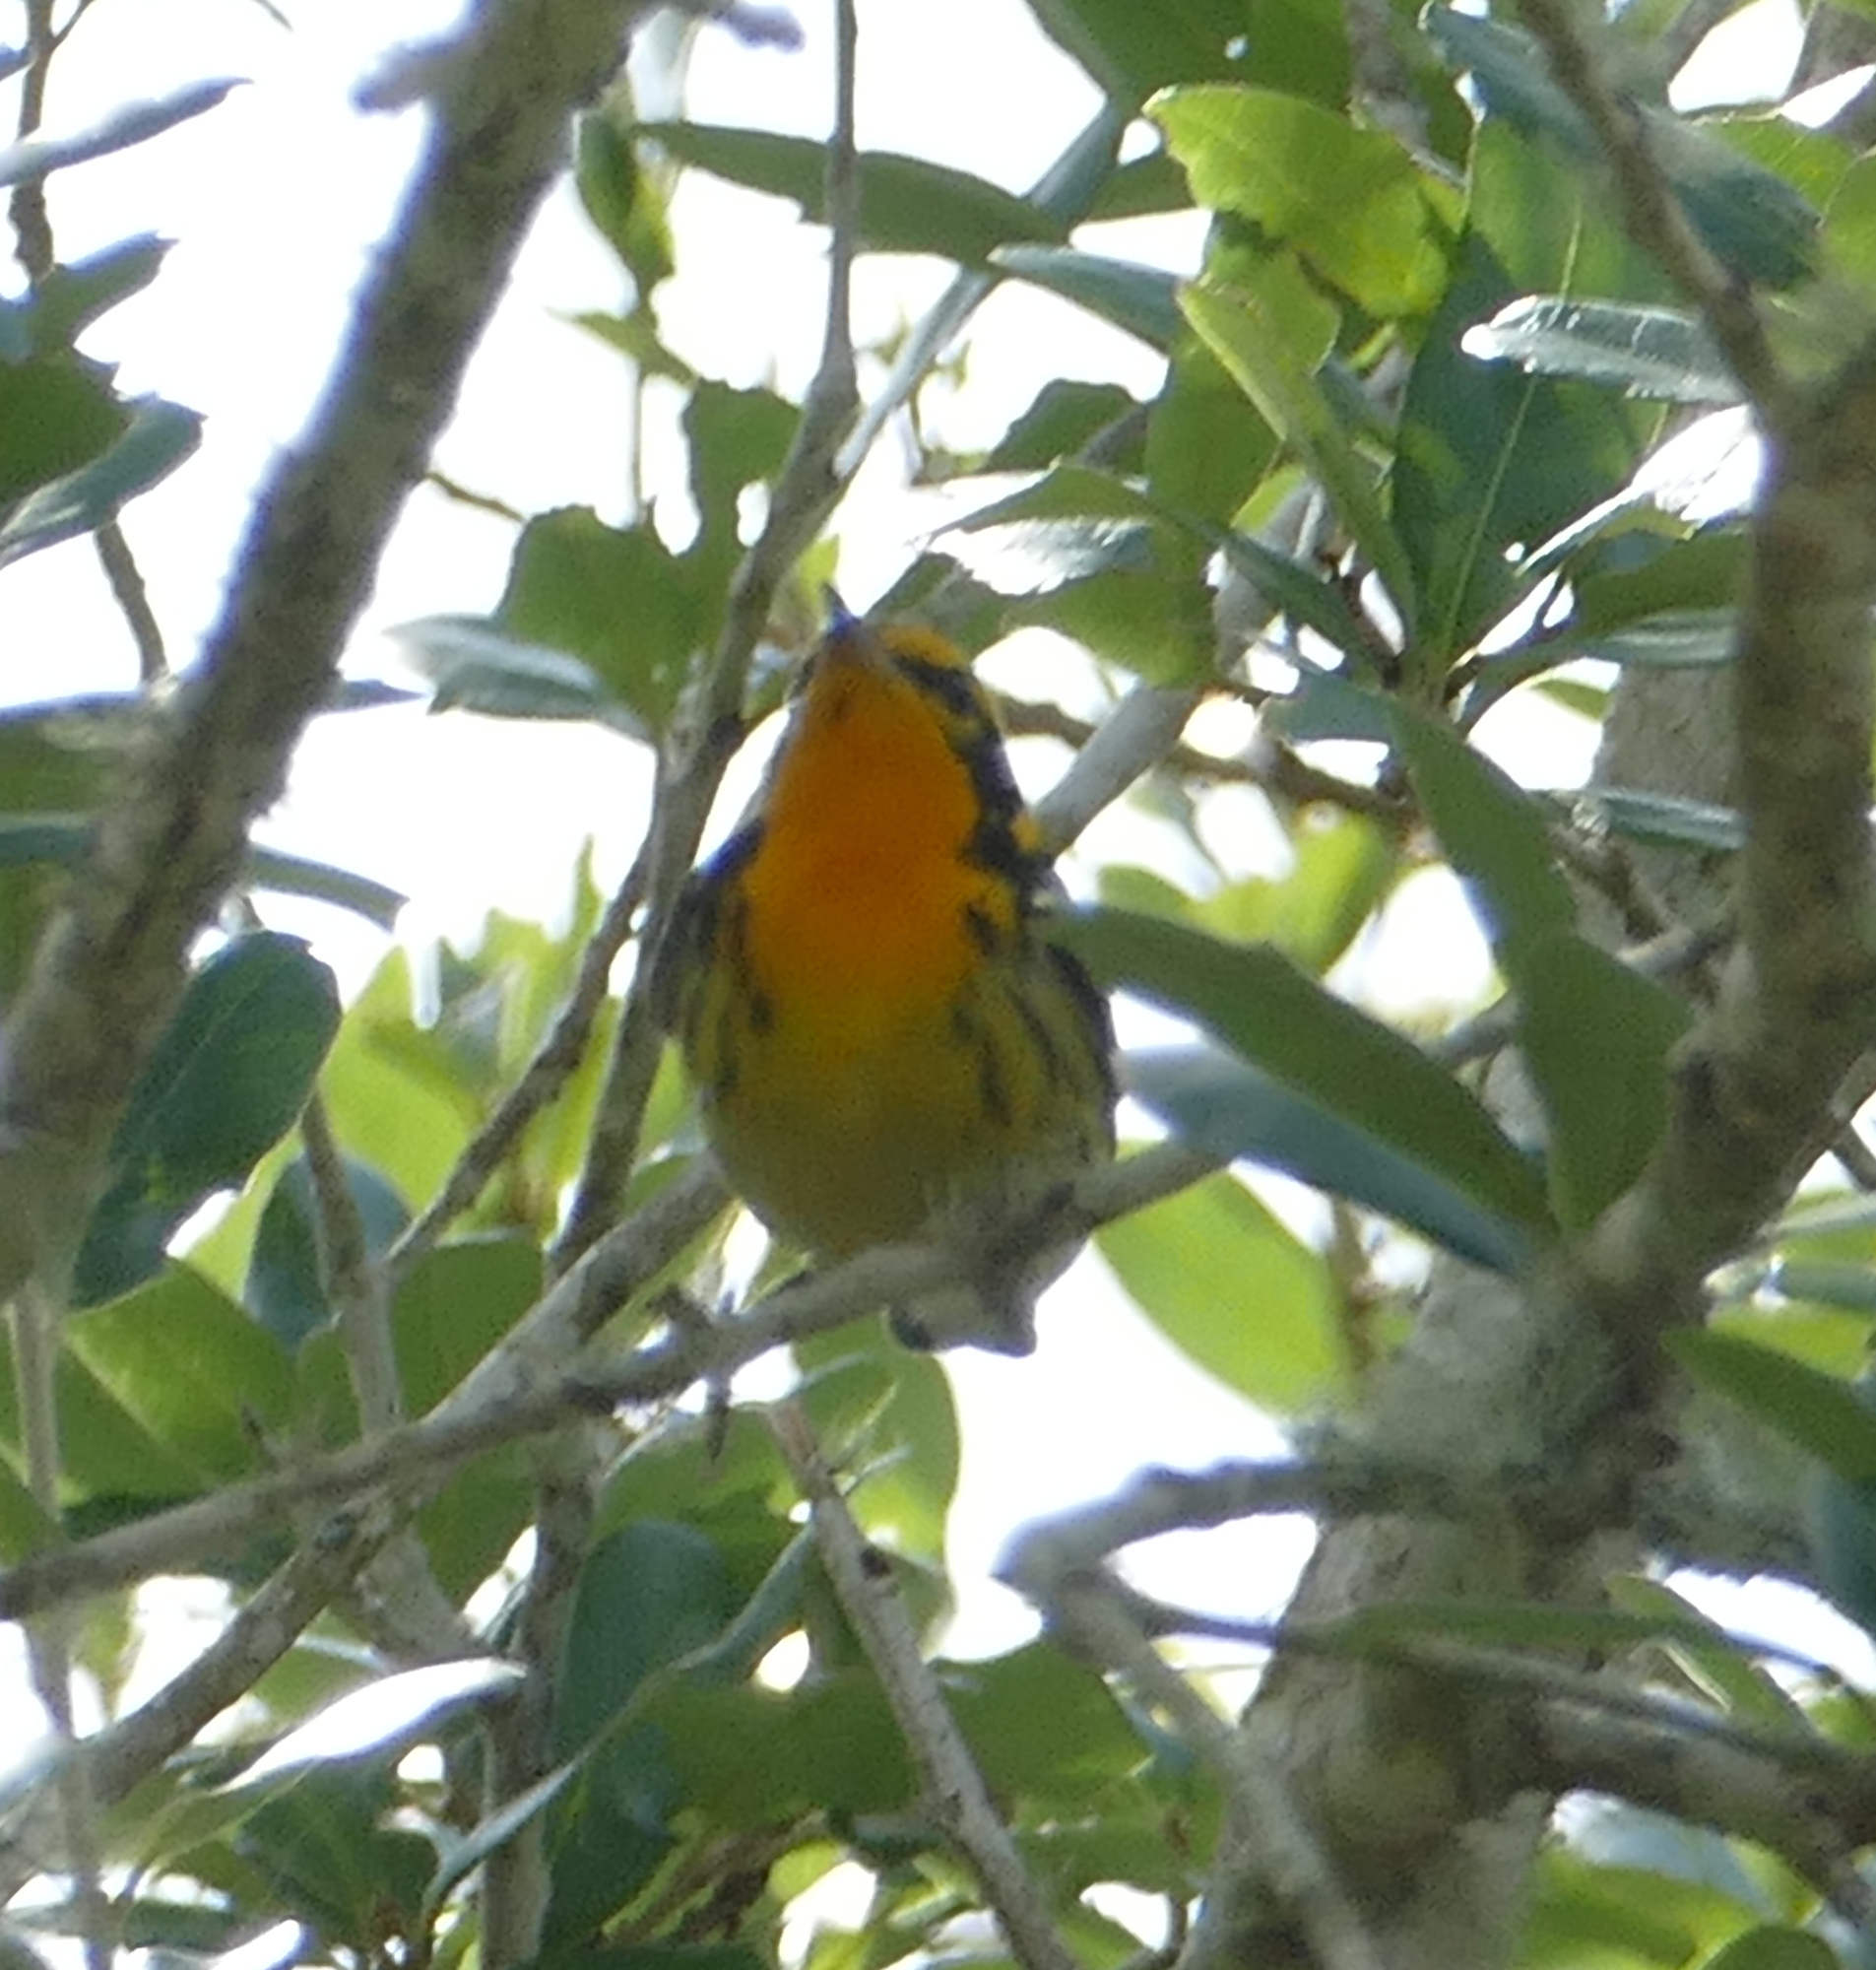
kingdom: Animalia
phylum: Chordata
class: Aves
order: Passeriformes
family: Parulidae
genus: Setophaga
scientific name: Setophaga fusca
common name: Blackburnian warbler
